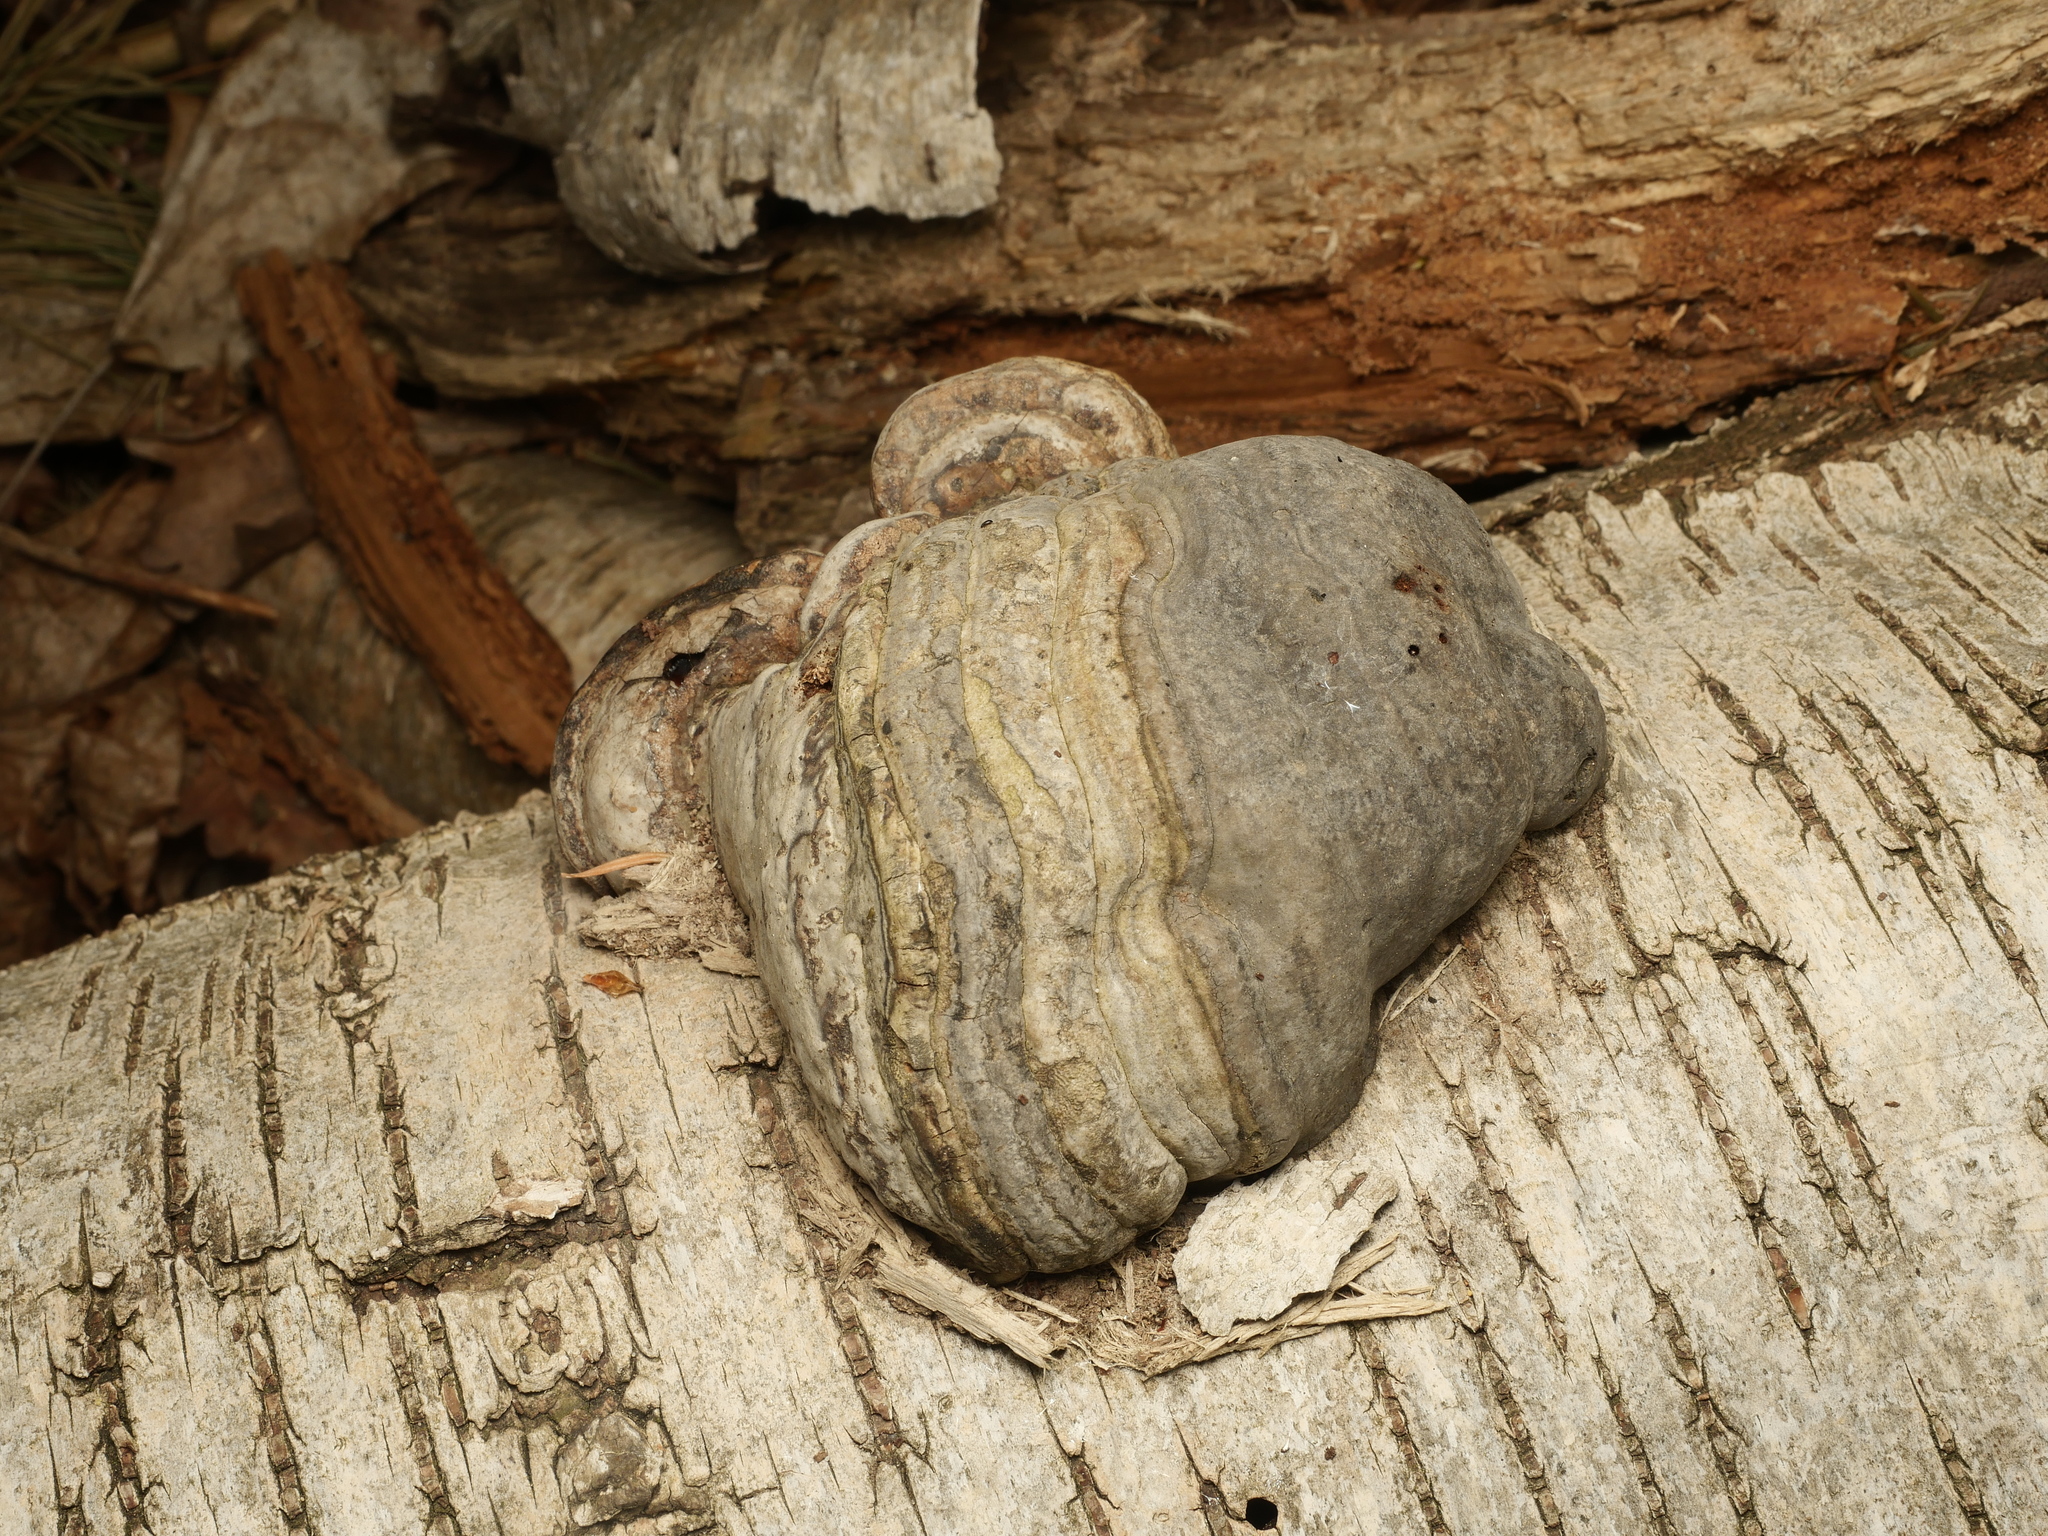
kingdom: Fungi
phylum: Basidiomycota
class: Agaricomycetes
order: Polyporales
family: Polyporaceae
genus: Fomes
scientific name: Fomes fomentarius
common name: Hoof fungus
